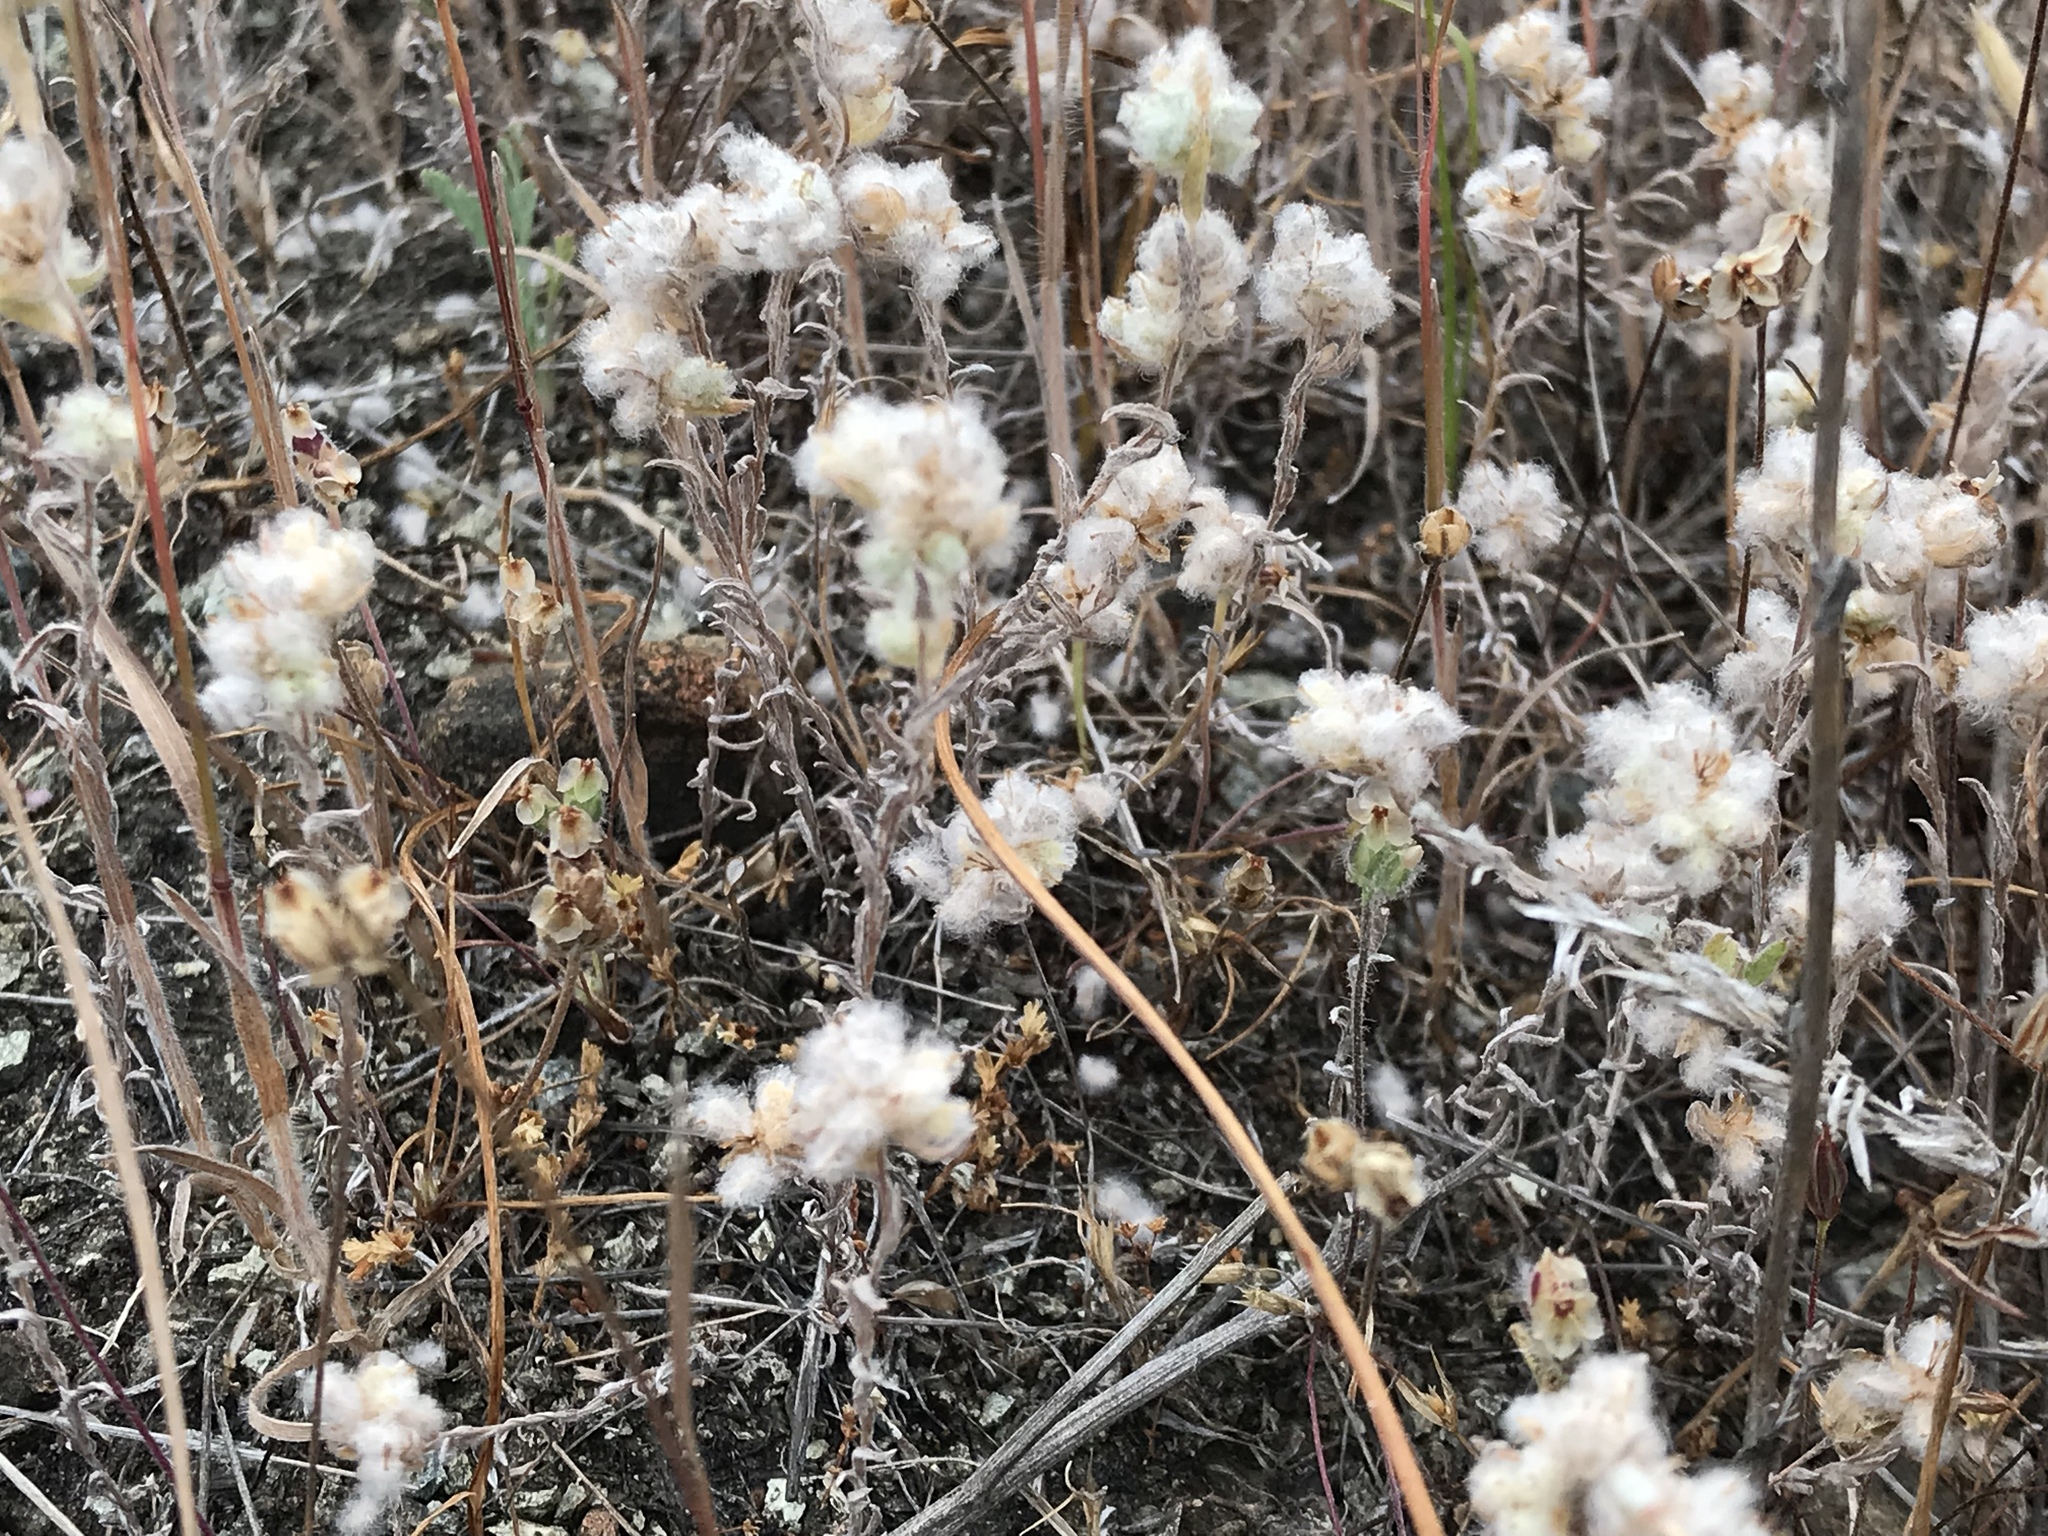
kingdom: Plantae
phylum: Tracheophyta
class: Magnoliopsida
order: Asterales
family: Asteraceae
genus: Bombycilaena
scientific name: Bombycilaena californica
